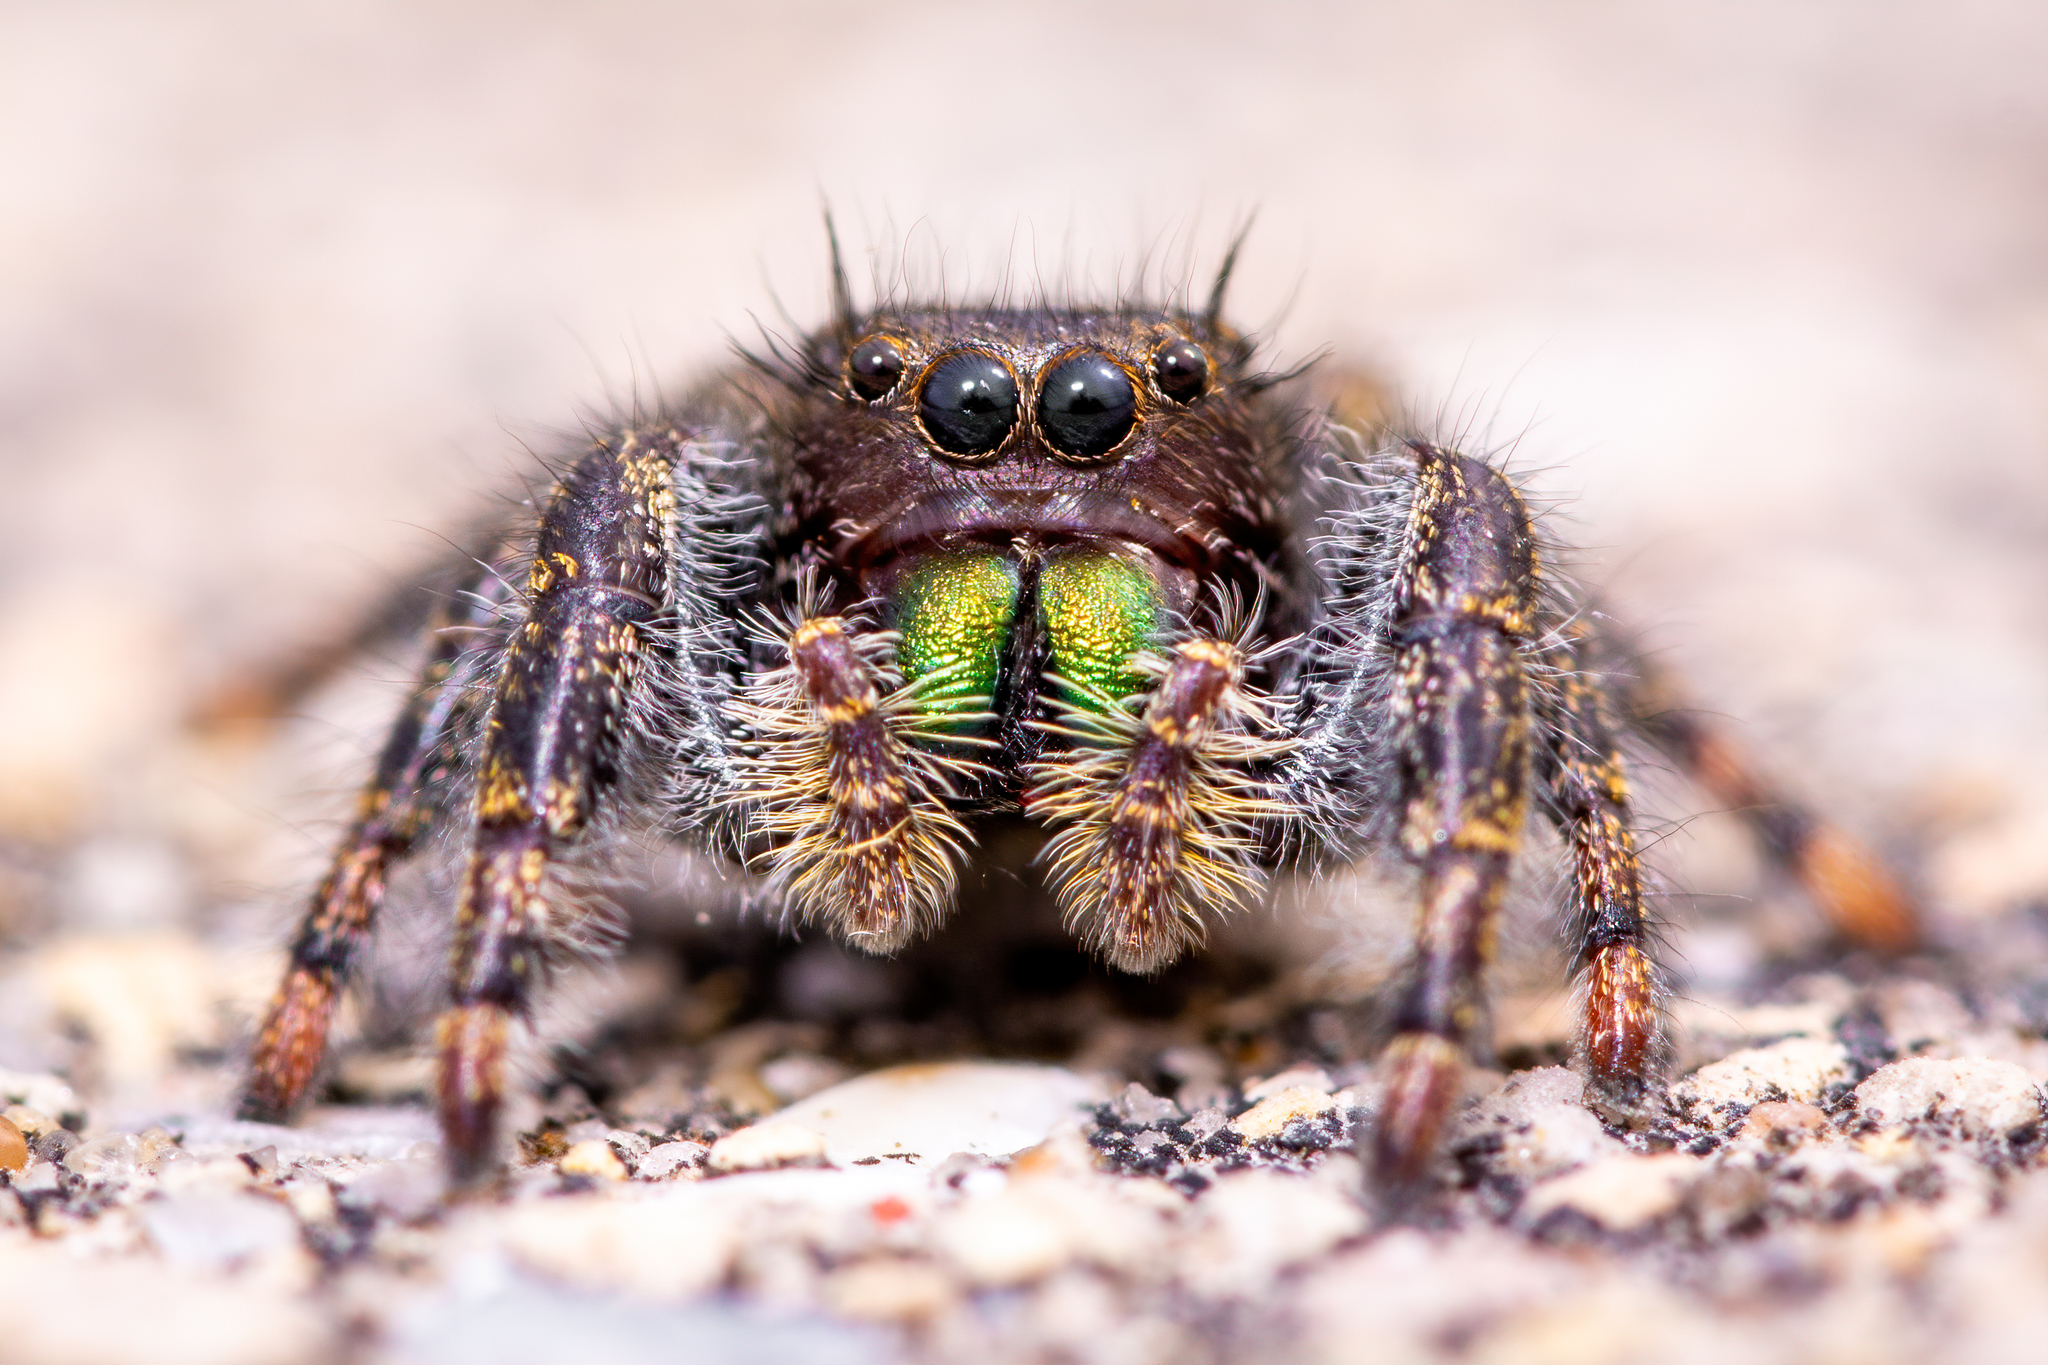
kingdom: Animalia
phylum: Arthropoda
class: Arachnida
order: Araneae
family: Salticidae
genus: Phidippus
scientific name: Phidippus audax
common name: Bold jumper
